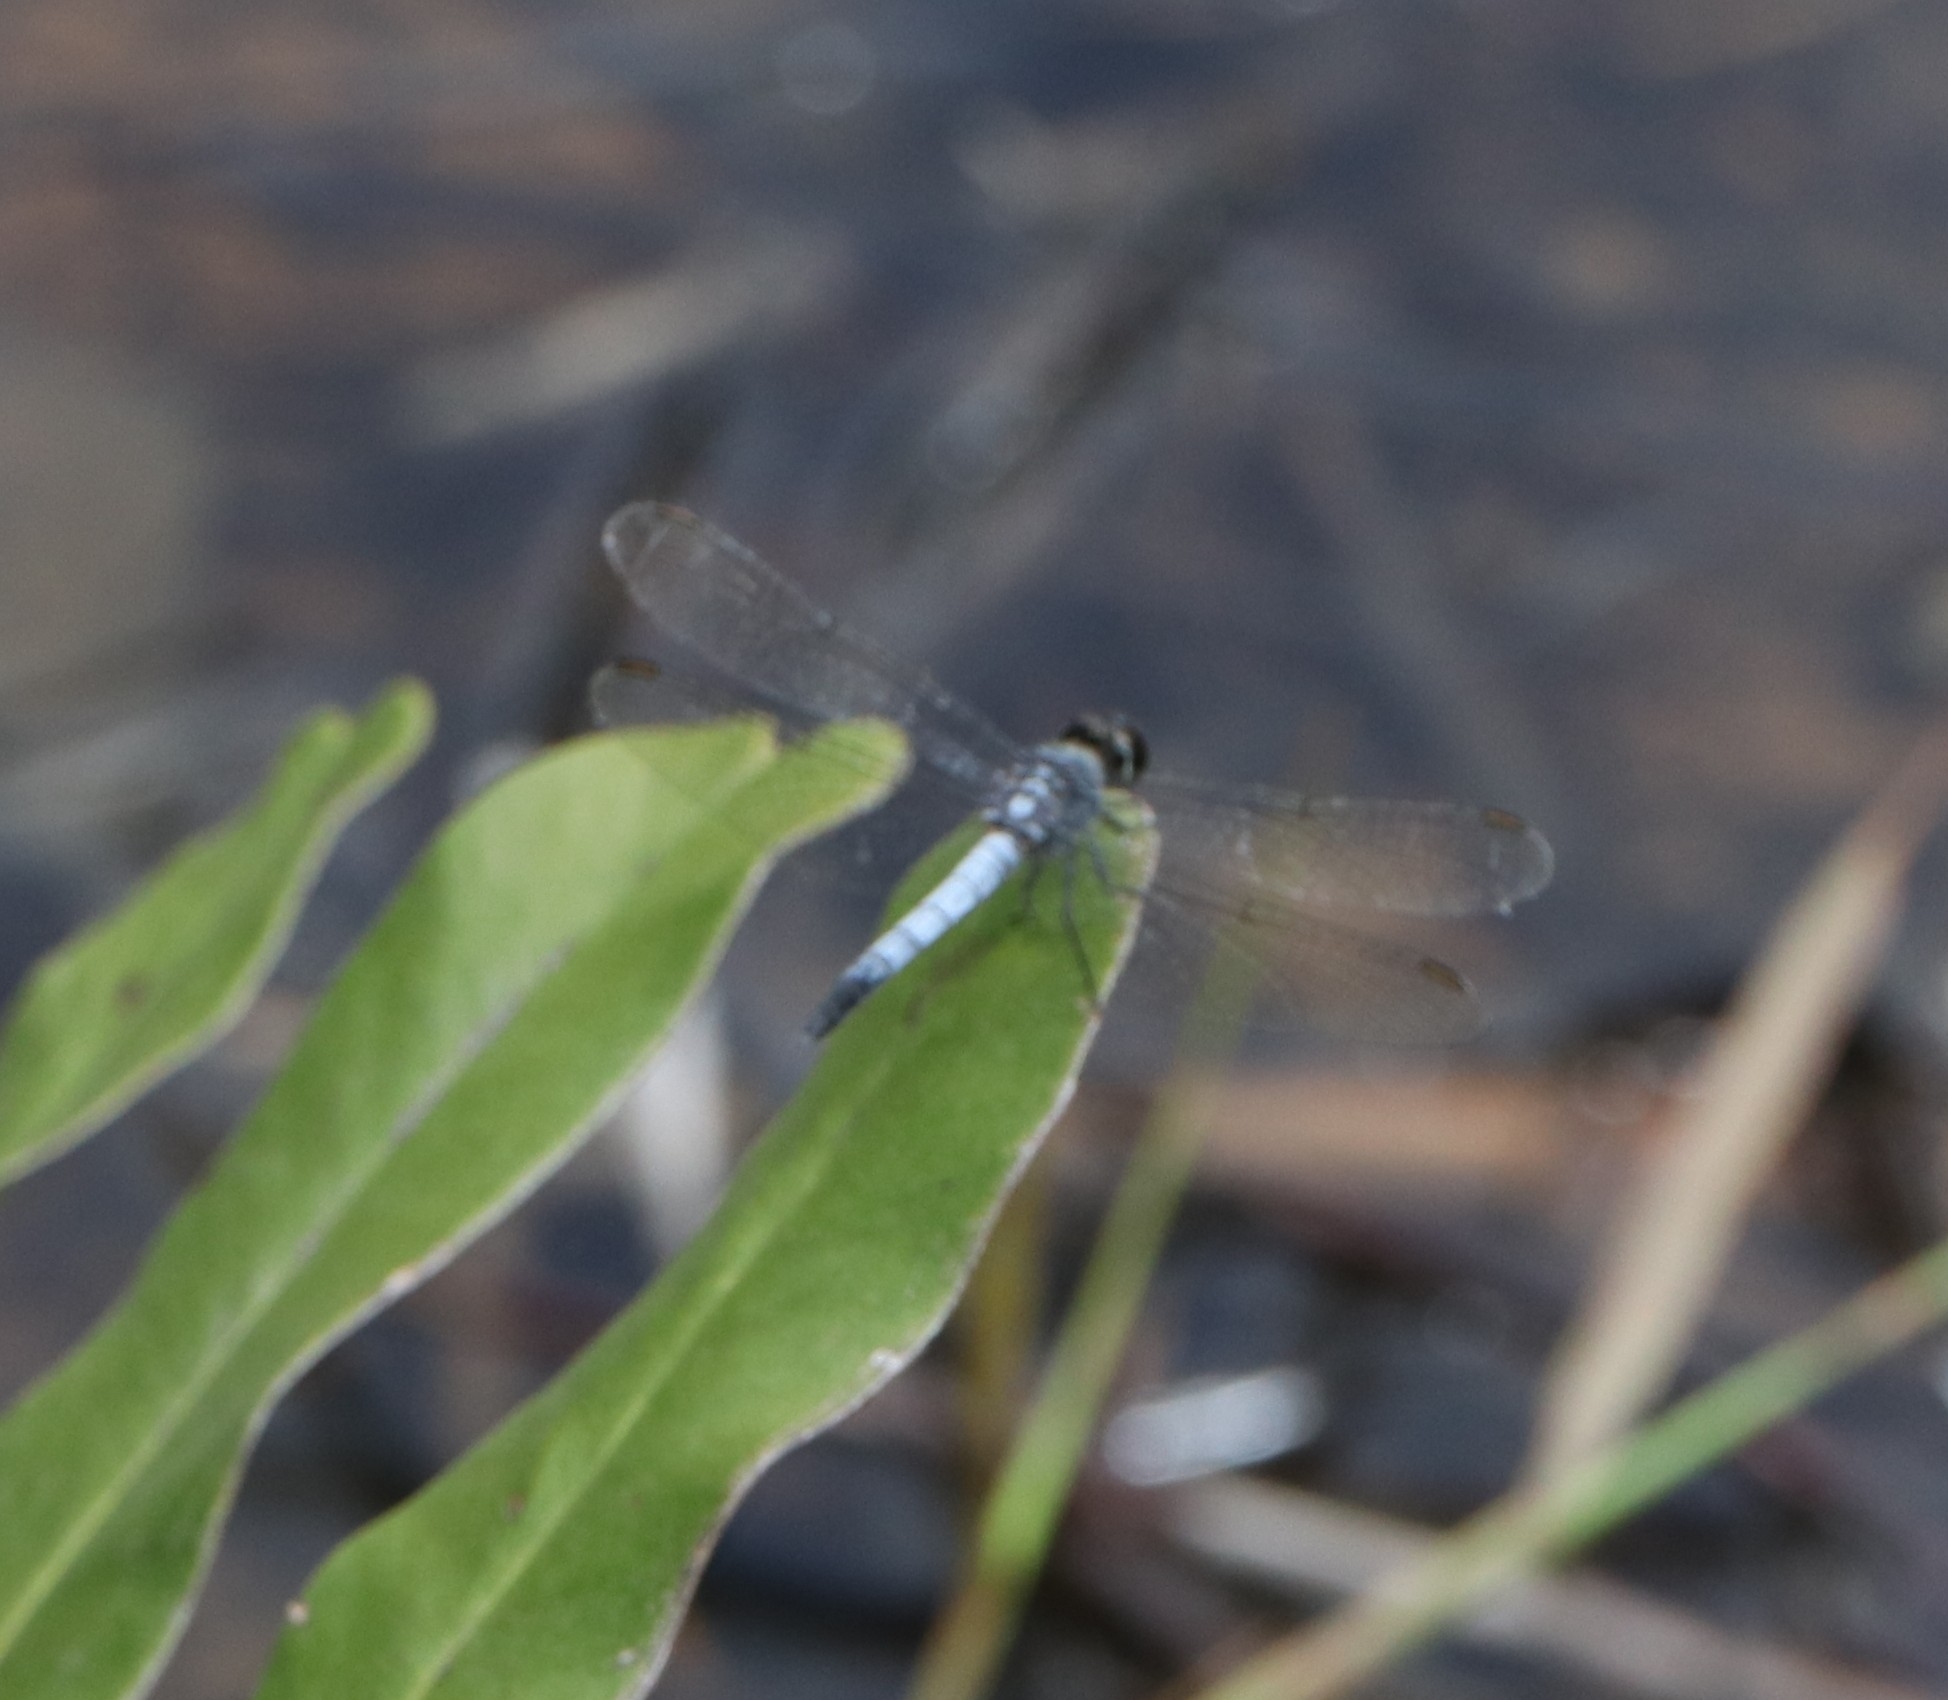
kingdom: Animalia
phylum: Arthropoda
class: Insecta
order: Odonata
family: Libellulidae
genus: Brachydiplax
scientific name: Brachydiplax sobrina
